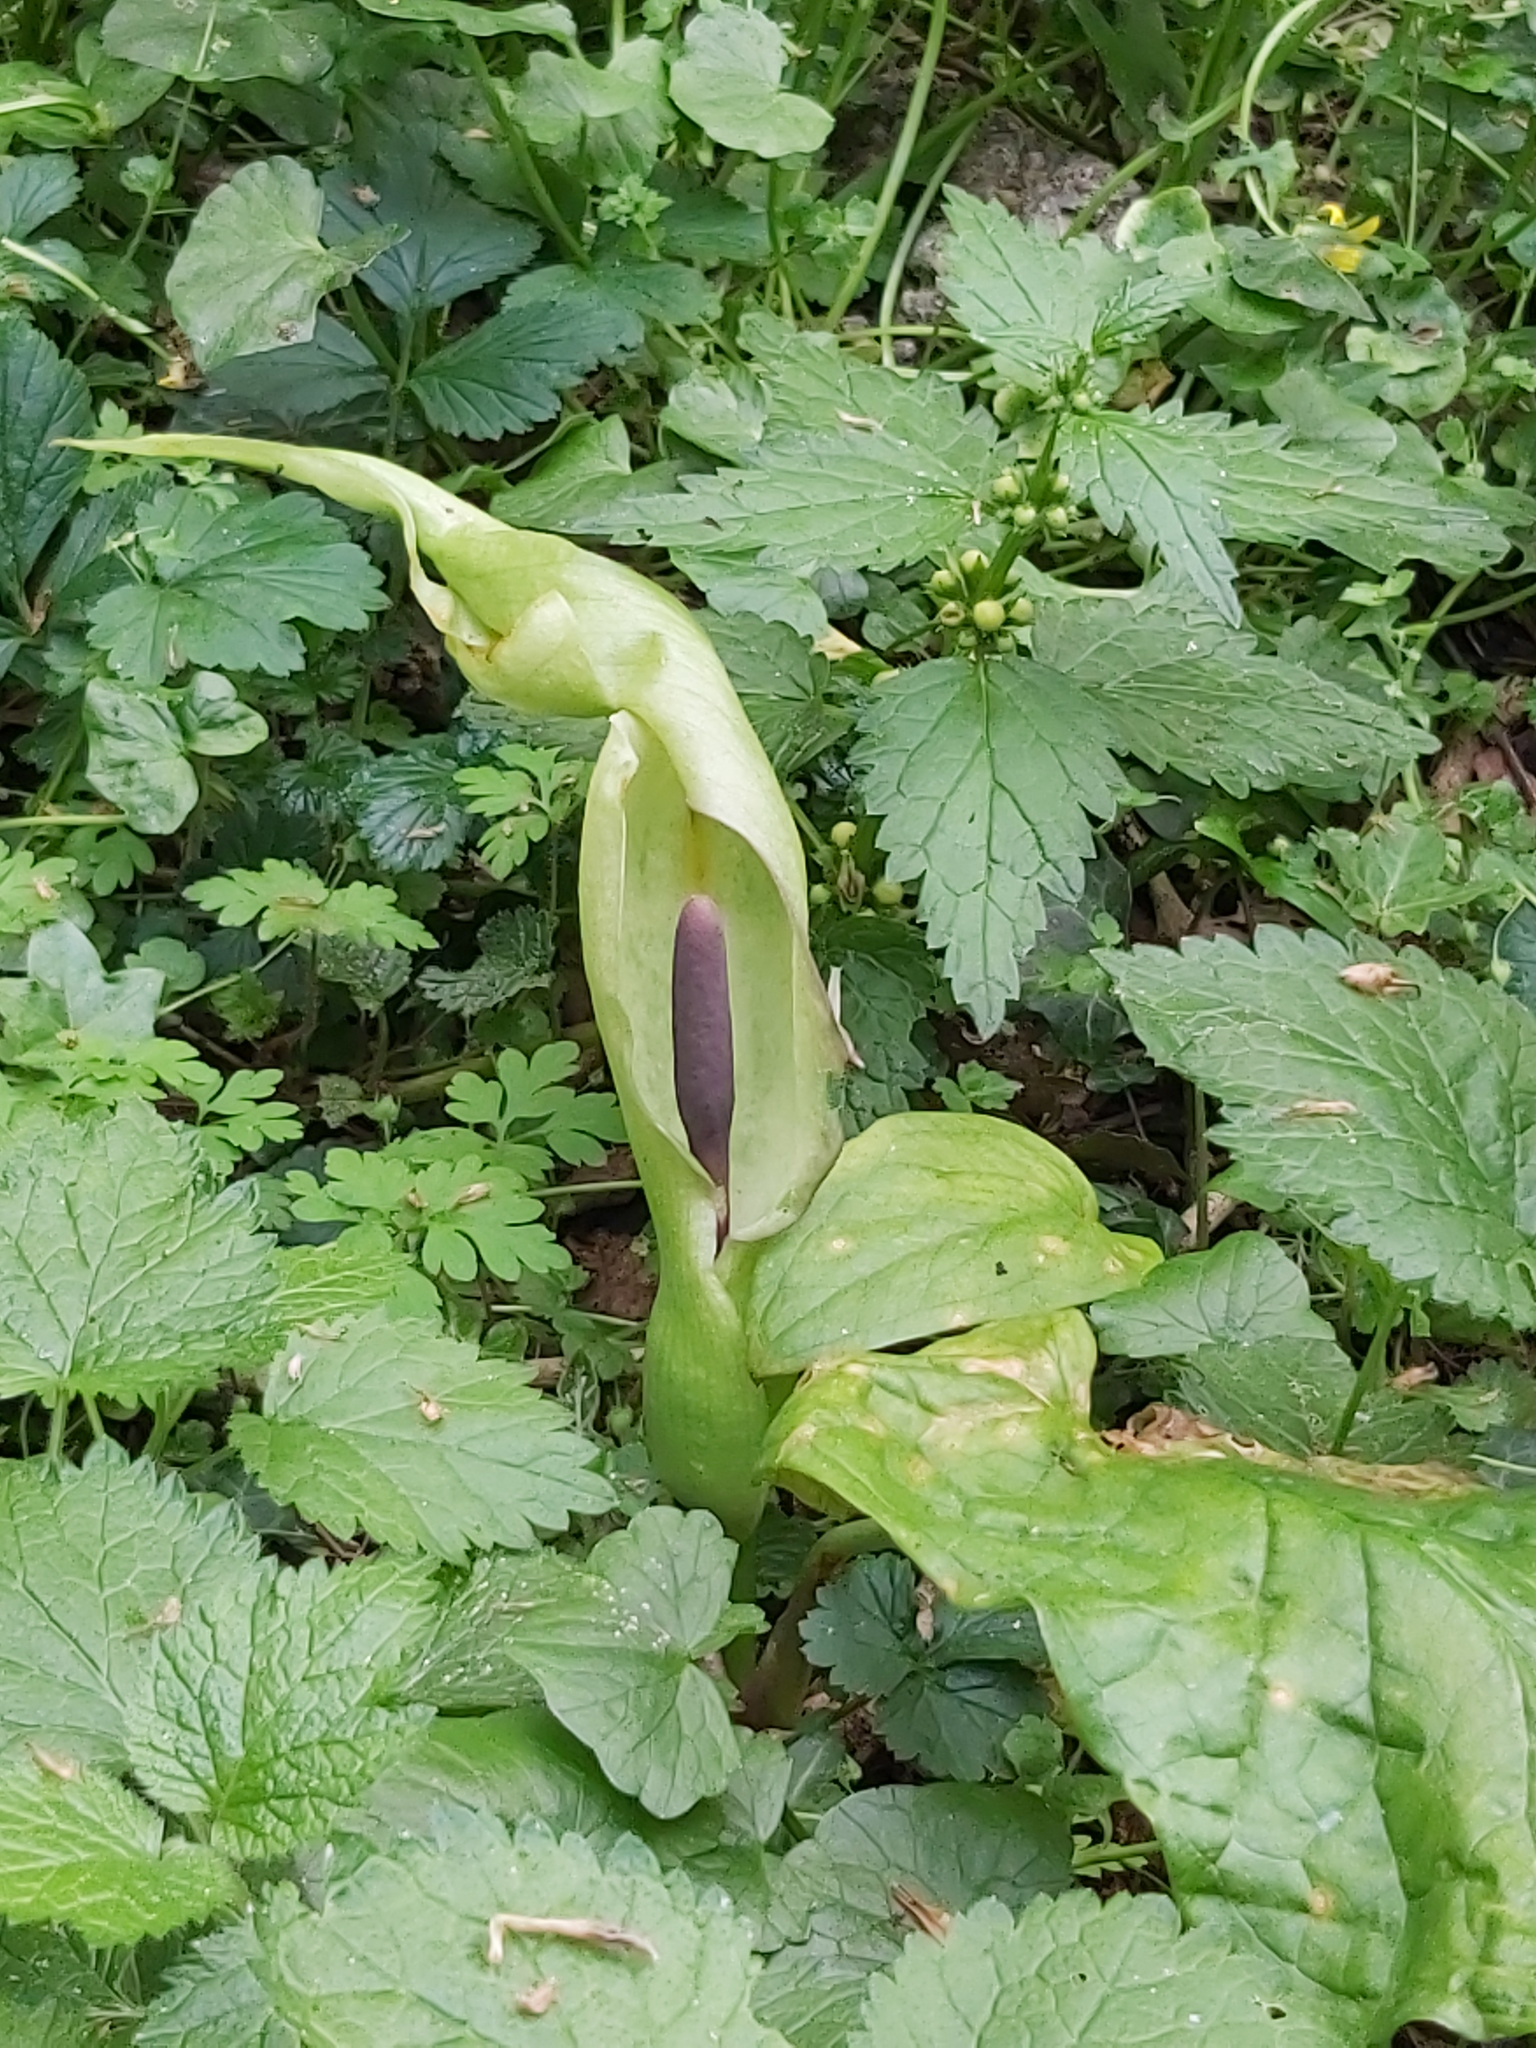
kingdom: Plantae
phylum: Tracheophyta
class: Liliopsida
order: Alismatales
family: Araceae
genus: Arum
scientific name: Arum maculatum
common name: Lords-and-ladies
